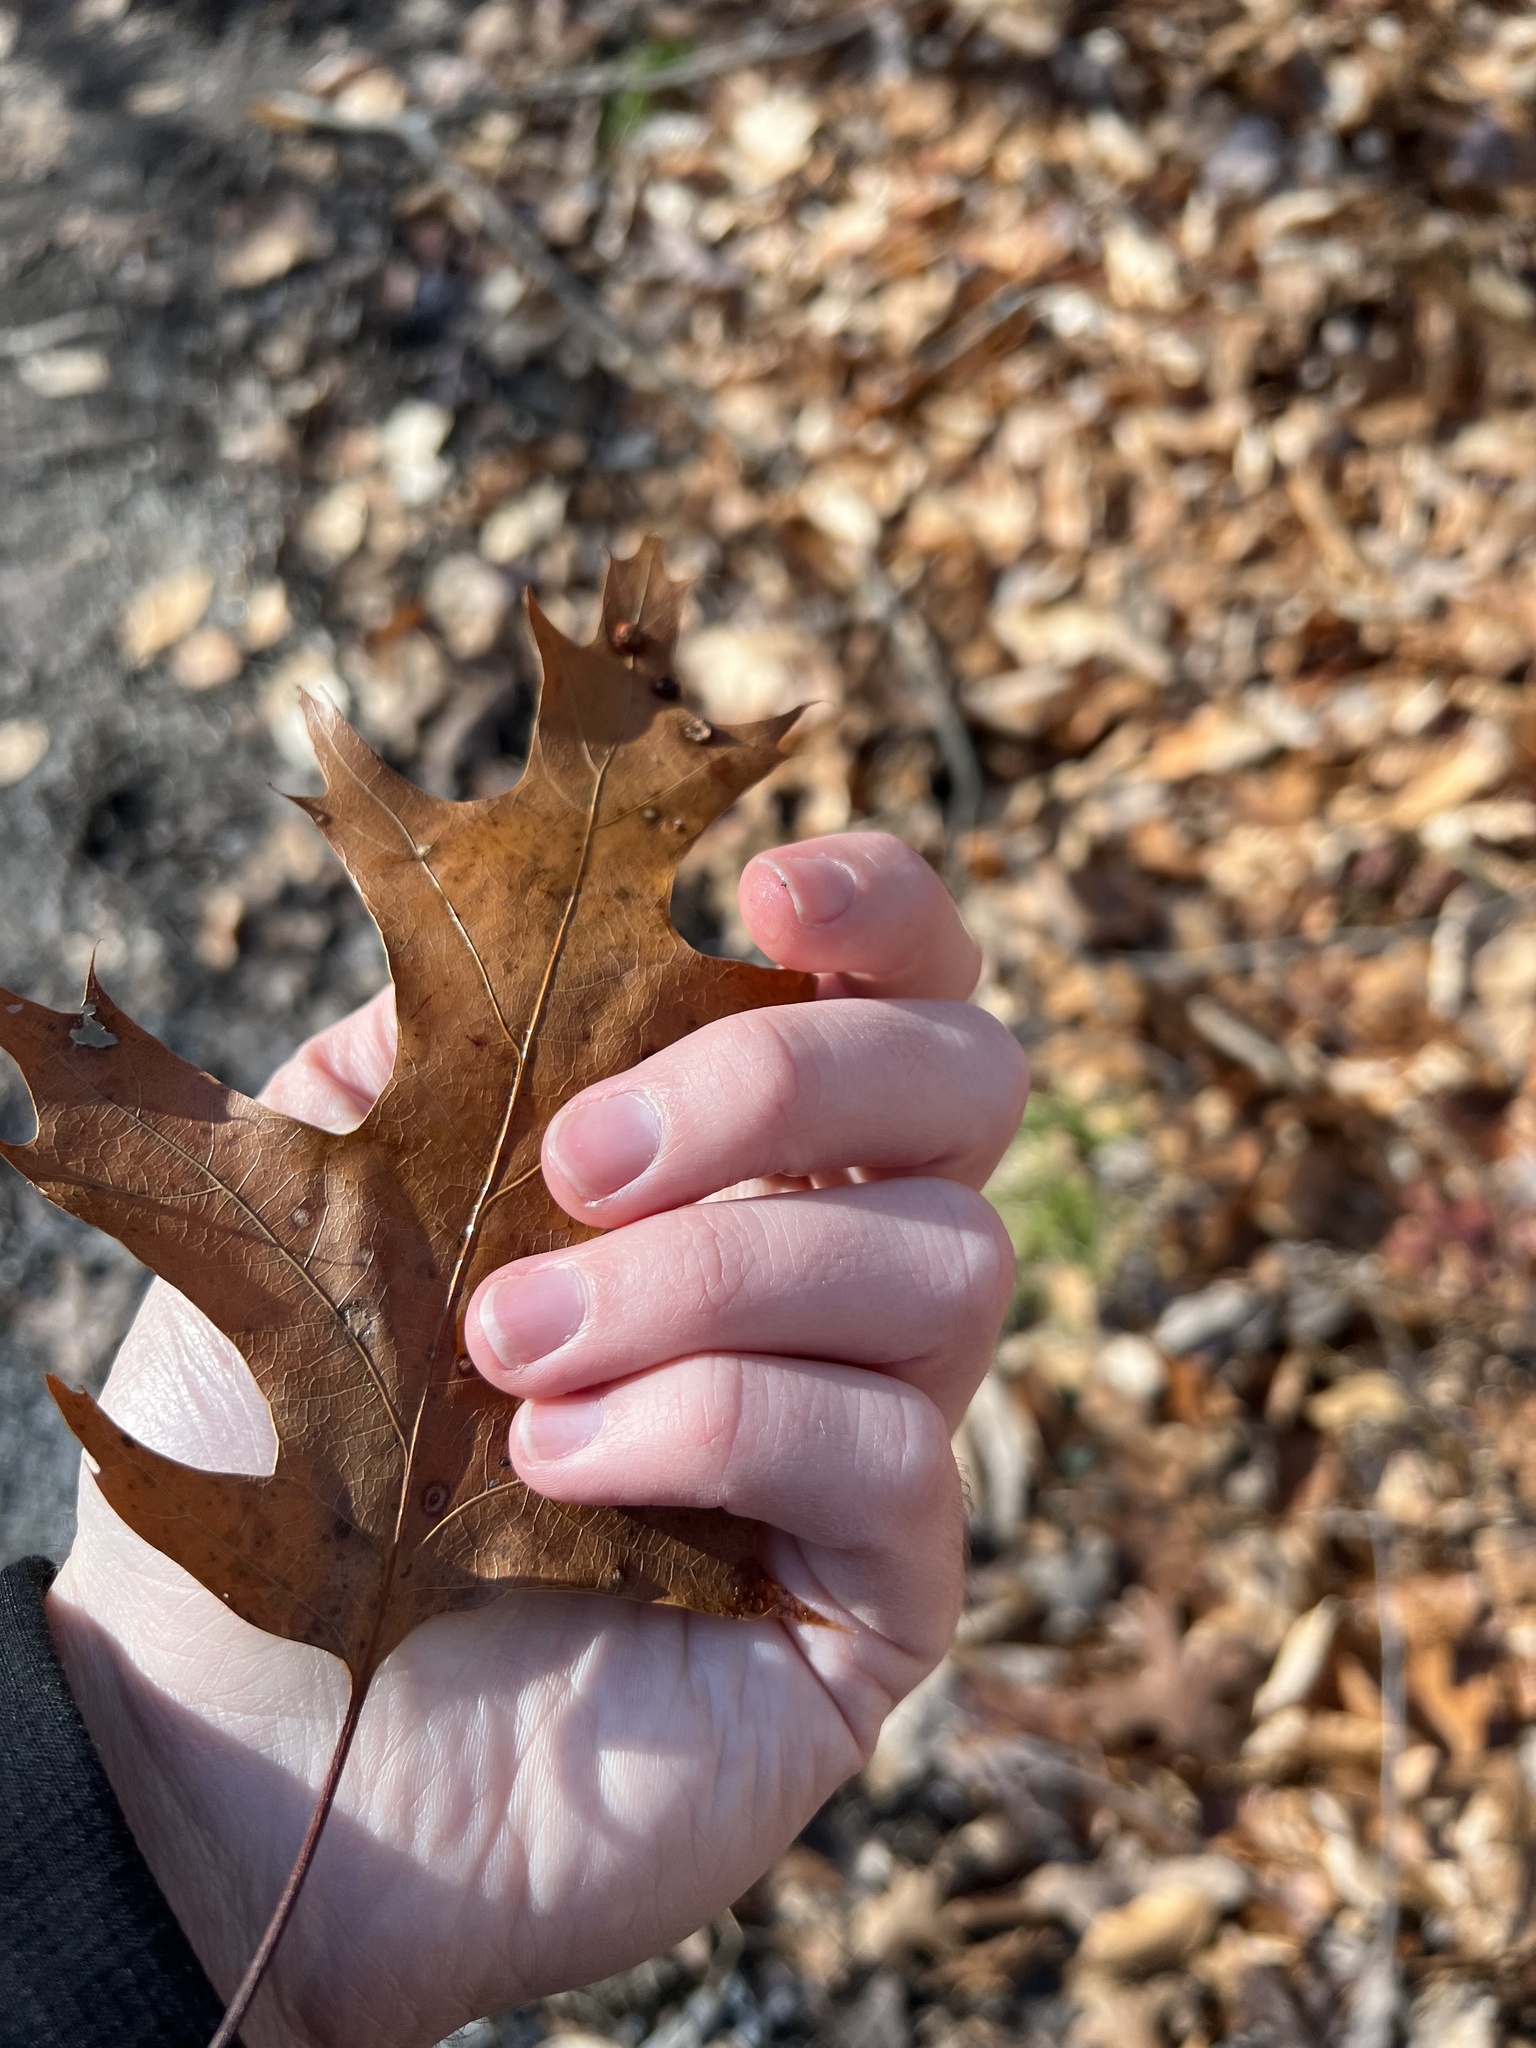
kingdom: Plantae
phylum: Tracheophyta
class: Magnoliopsida
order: Fagales
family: Fagaceae
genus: Quercus
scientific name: Quercus velutina
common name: Black oak
